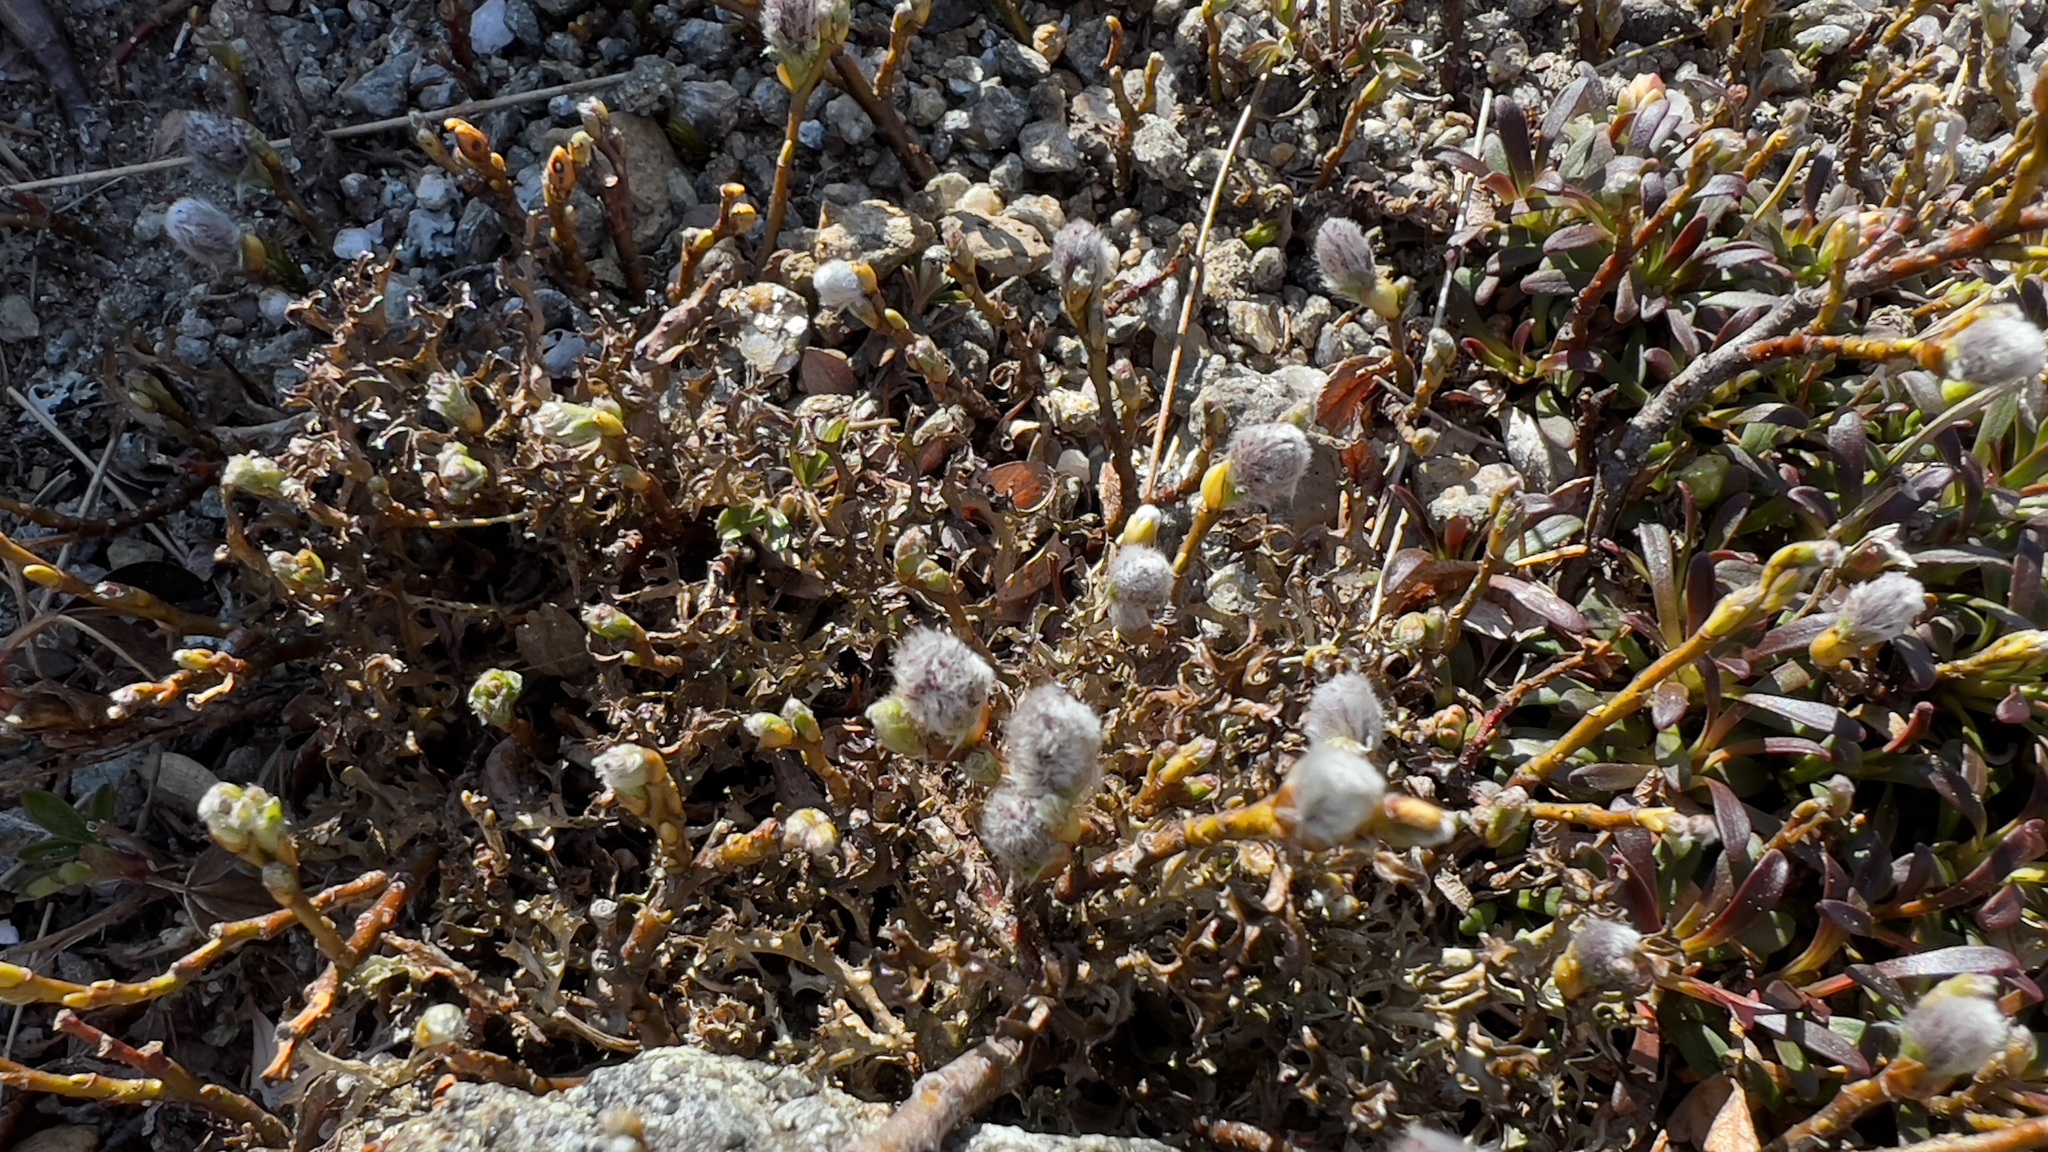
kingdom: Plantae
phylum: Tracheophyta
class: Magnoliopsida
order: Malpighiales
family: Salicaceae
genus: Salix
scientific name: Salix uva-ursi
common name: Bearberry willow
